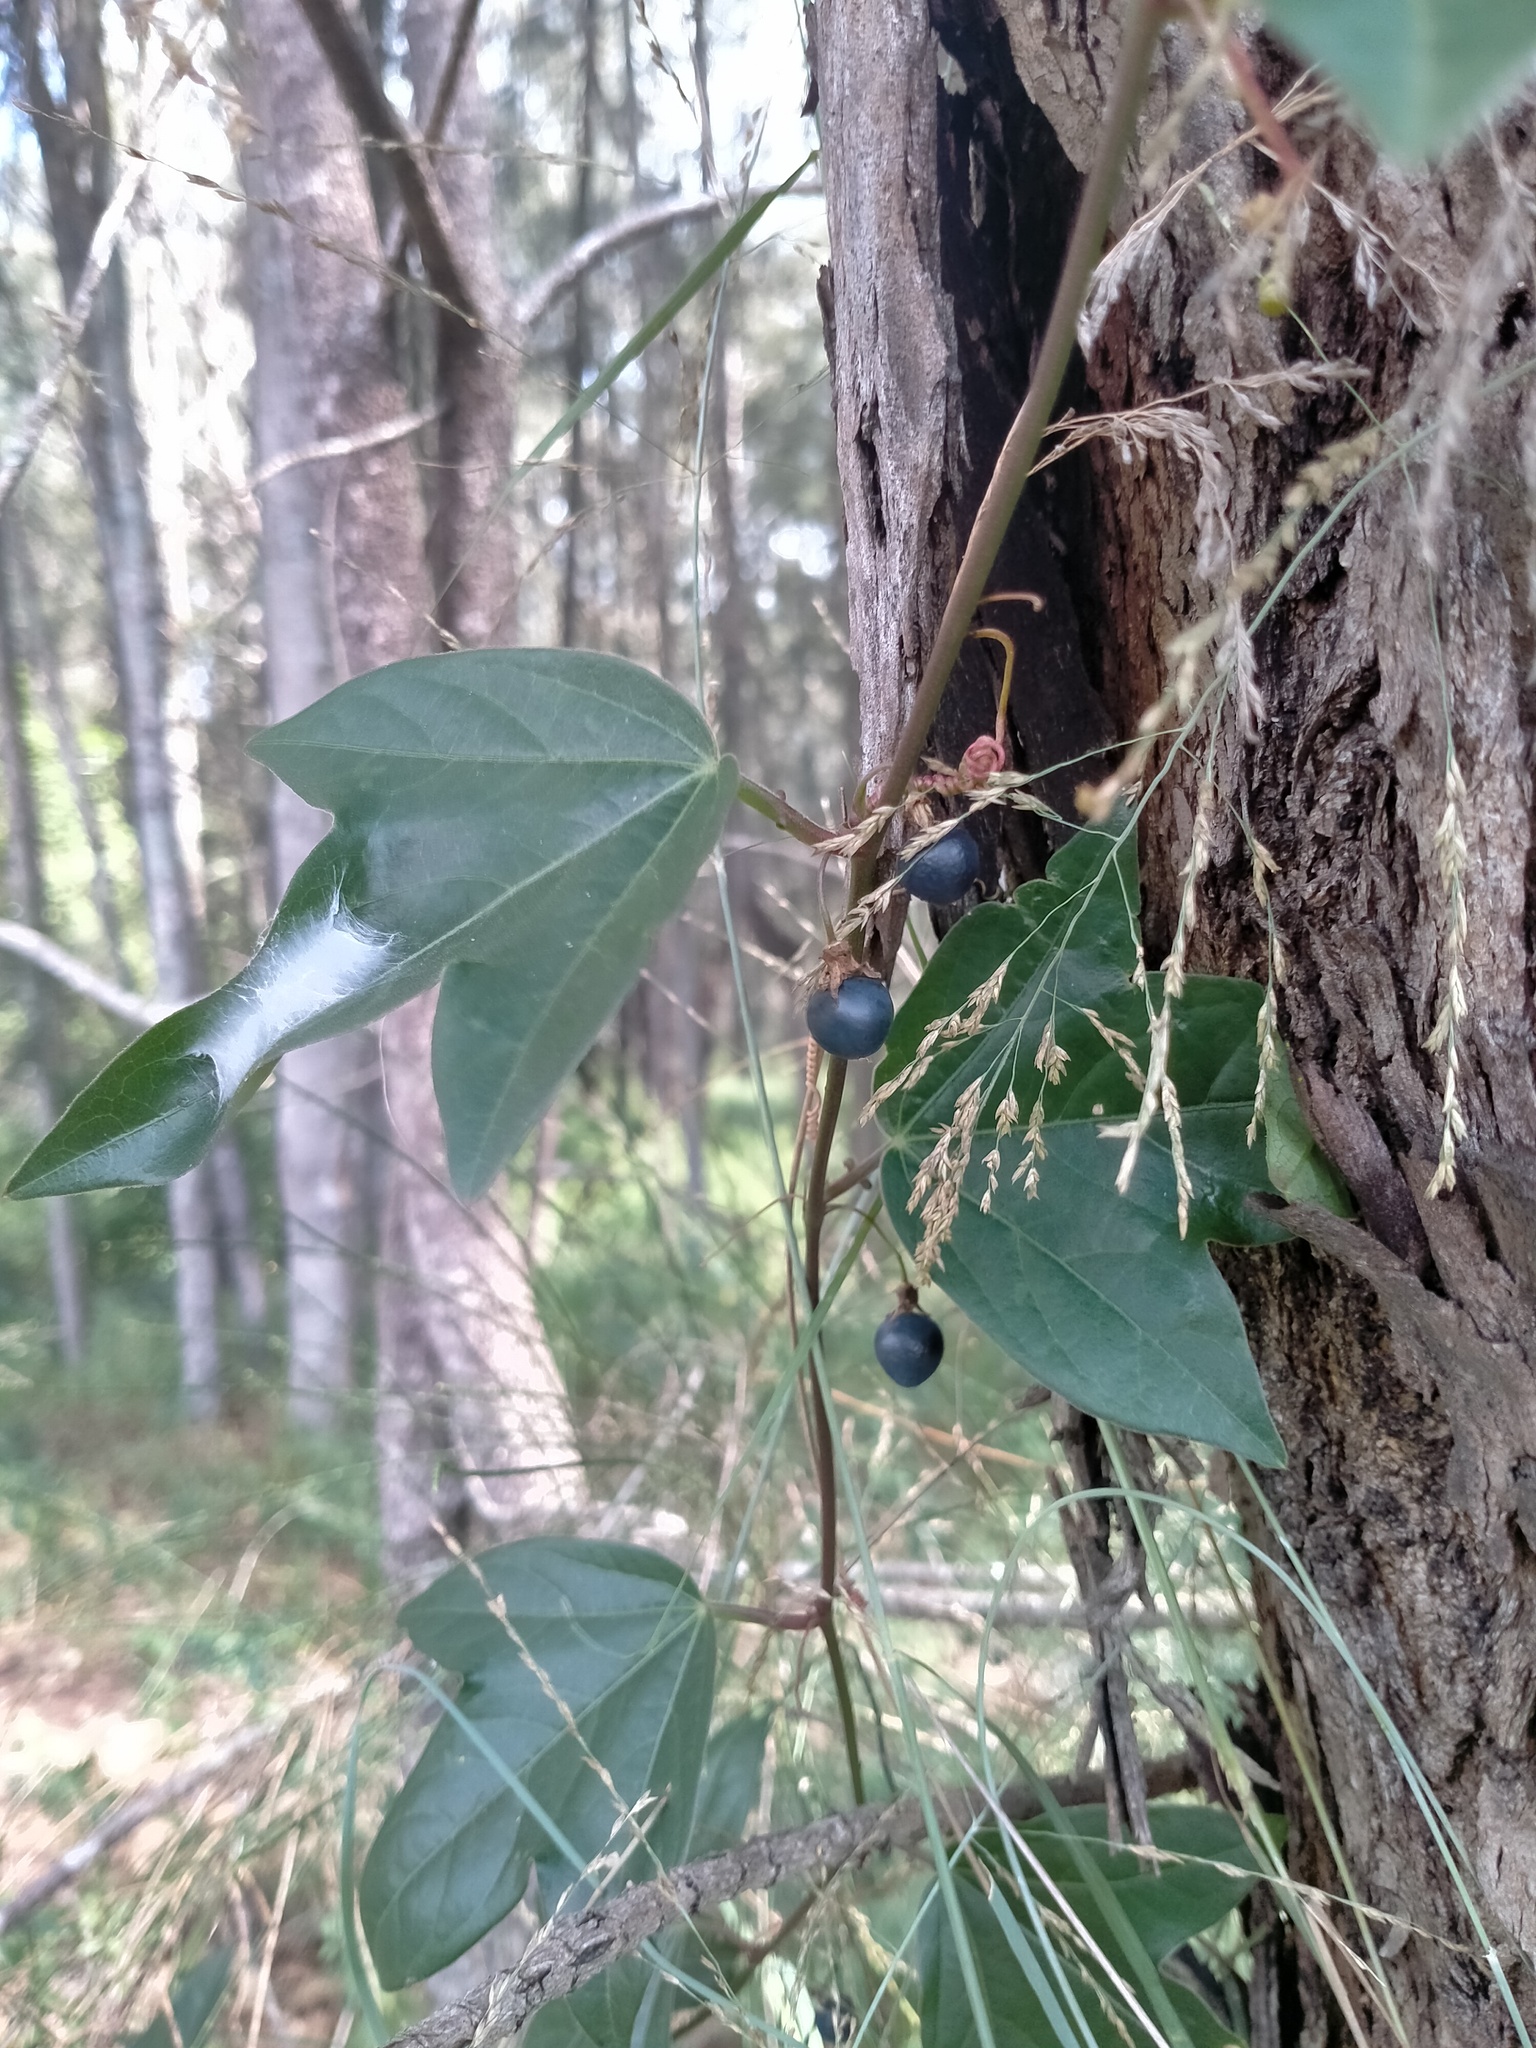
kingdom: Plantae
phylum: Tracheophyta
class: Magnoliopsida
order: Malpighiales
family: Passifloraceae
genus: Passiflora
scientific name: Passiflora suberosa
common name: Wild passionfruit
